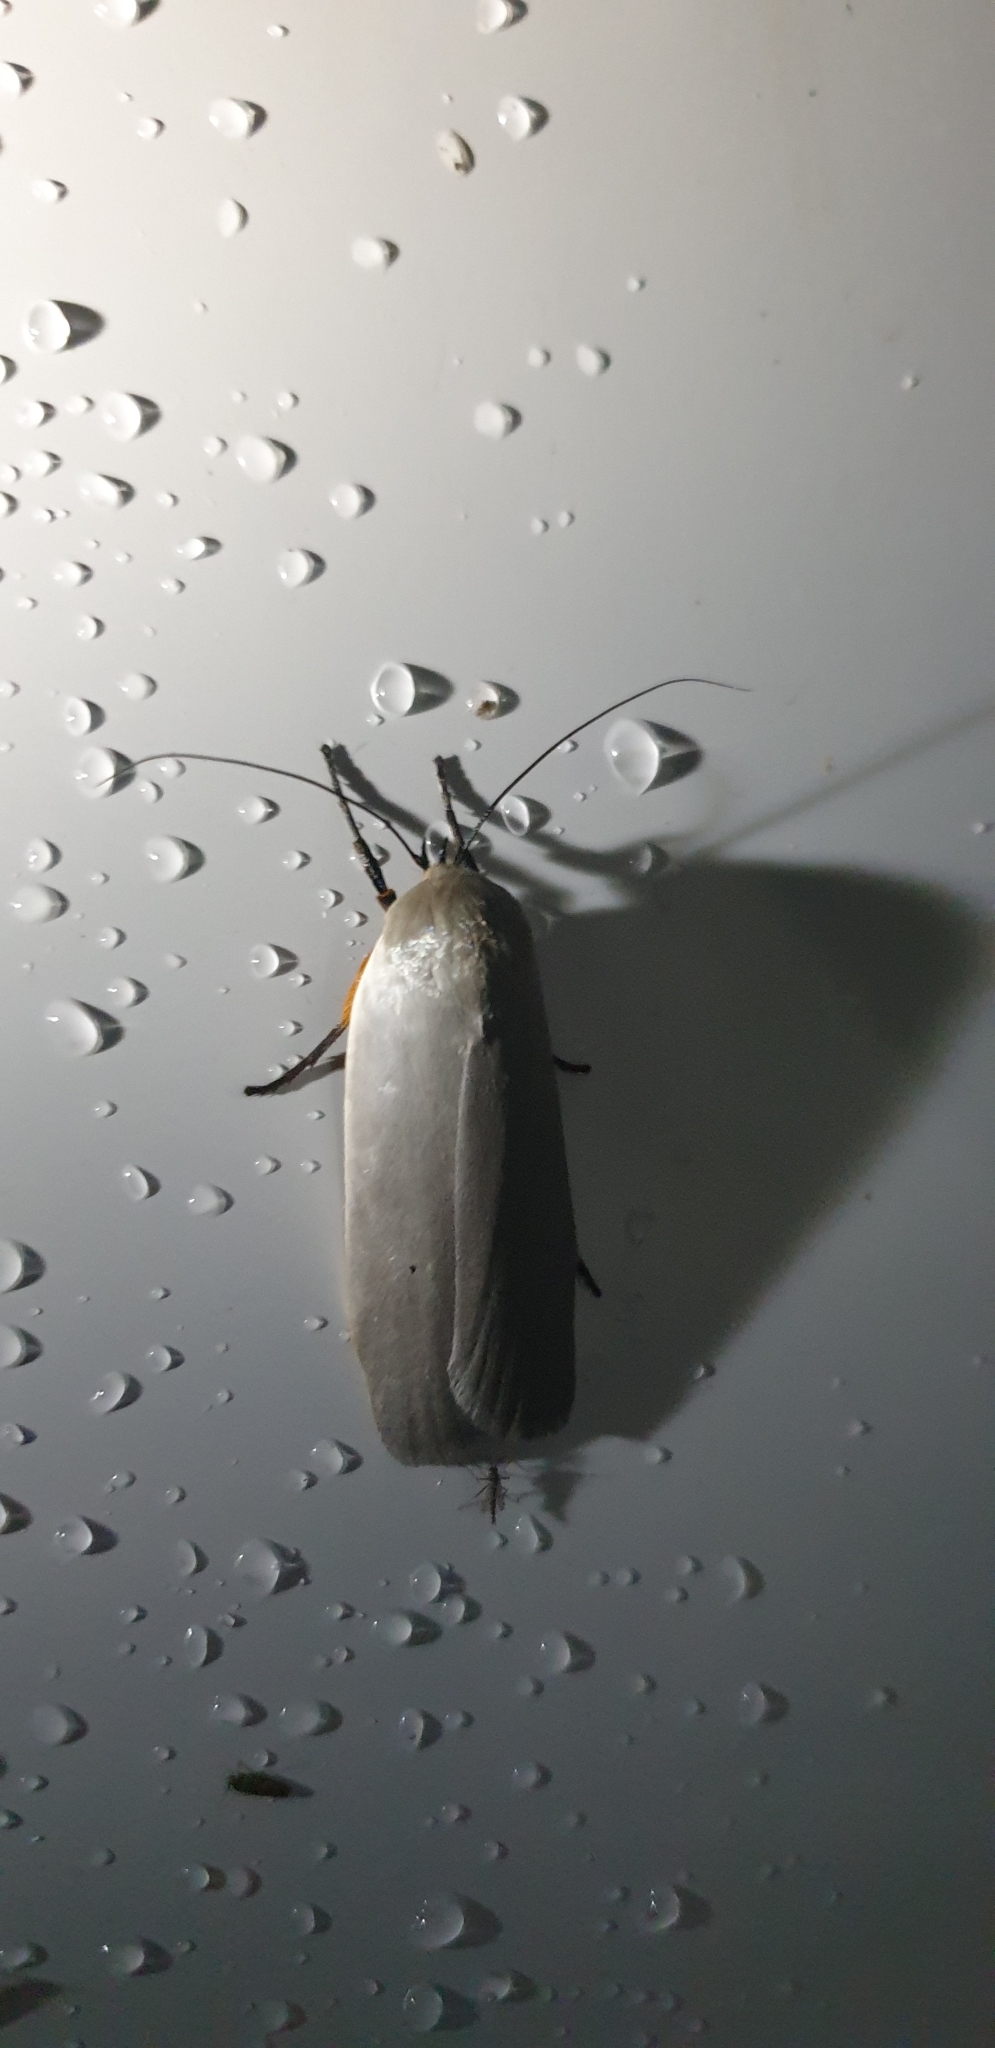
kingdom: Animalia
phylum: Arthropoda
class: Insecta
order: Lepidoptera
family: Xyloryctidae
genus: Maroga
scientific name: Maroga melanostigma
